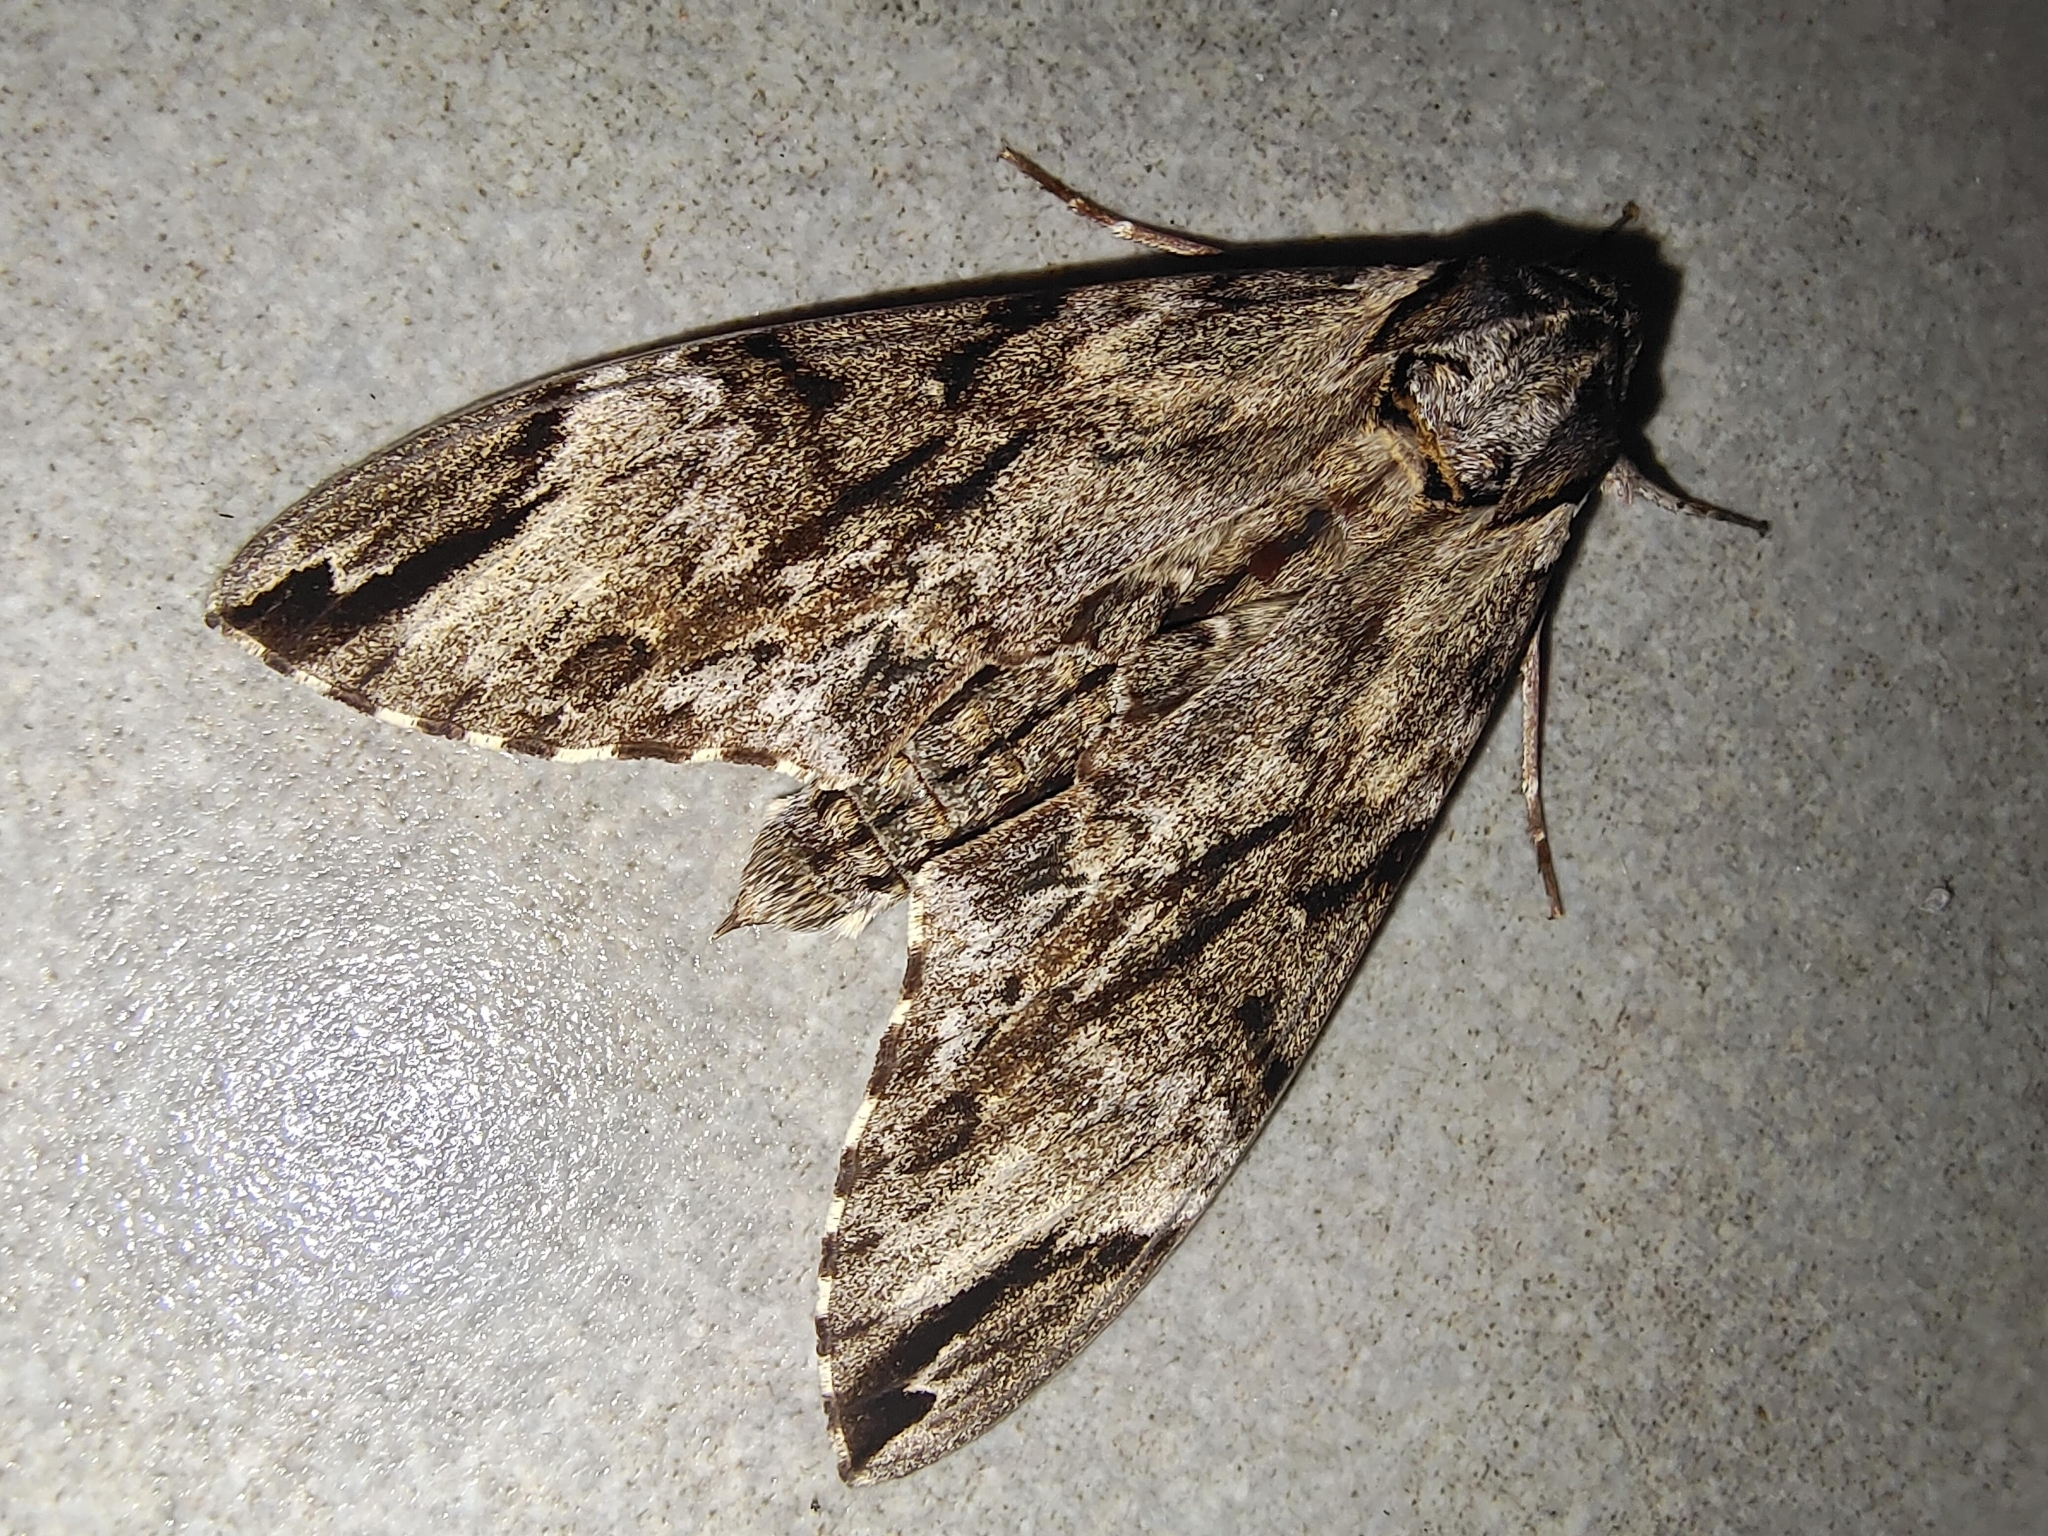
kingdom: Animalia
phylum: Arthropoda
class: Insecta
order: Lepidoptera
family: Sphingidae
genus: Psilogramma
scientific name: Psilogramma discistriga
